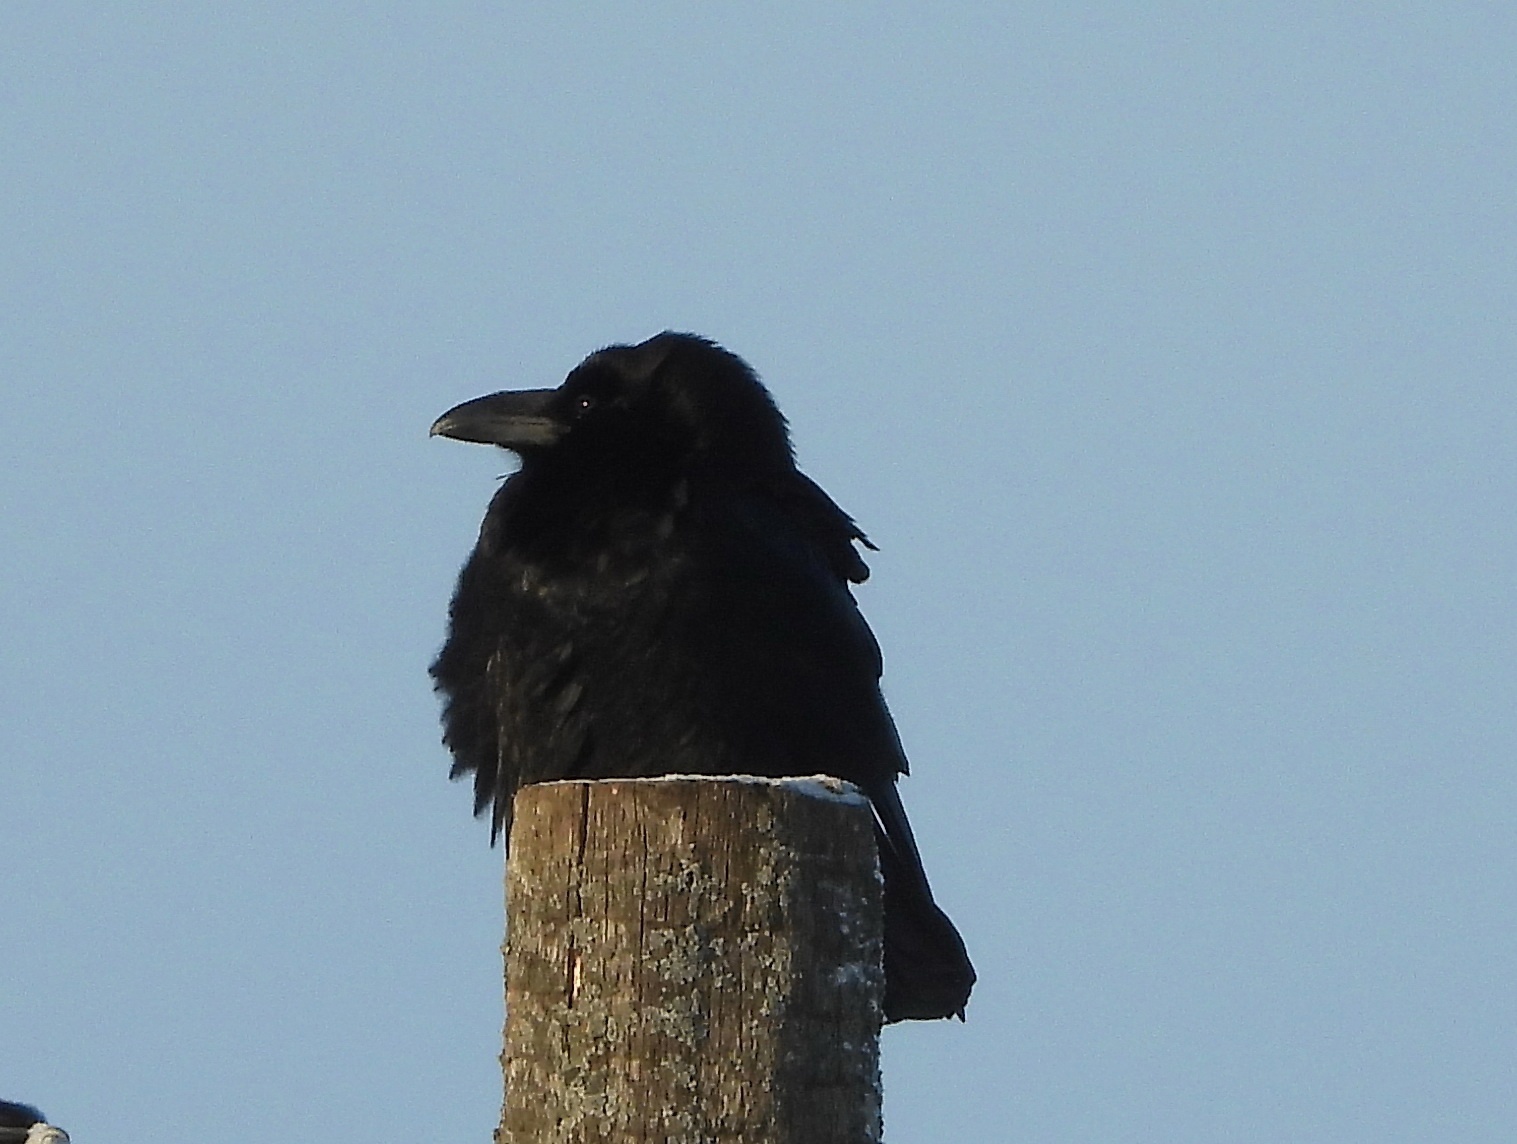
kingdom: Animalia
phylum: Chordata
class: Aves
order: Passeriformes
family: Corvidae
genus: Corvus
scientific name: Corvus corax
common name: Common raven
